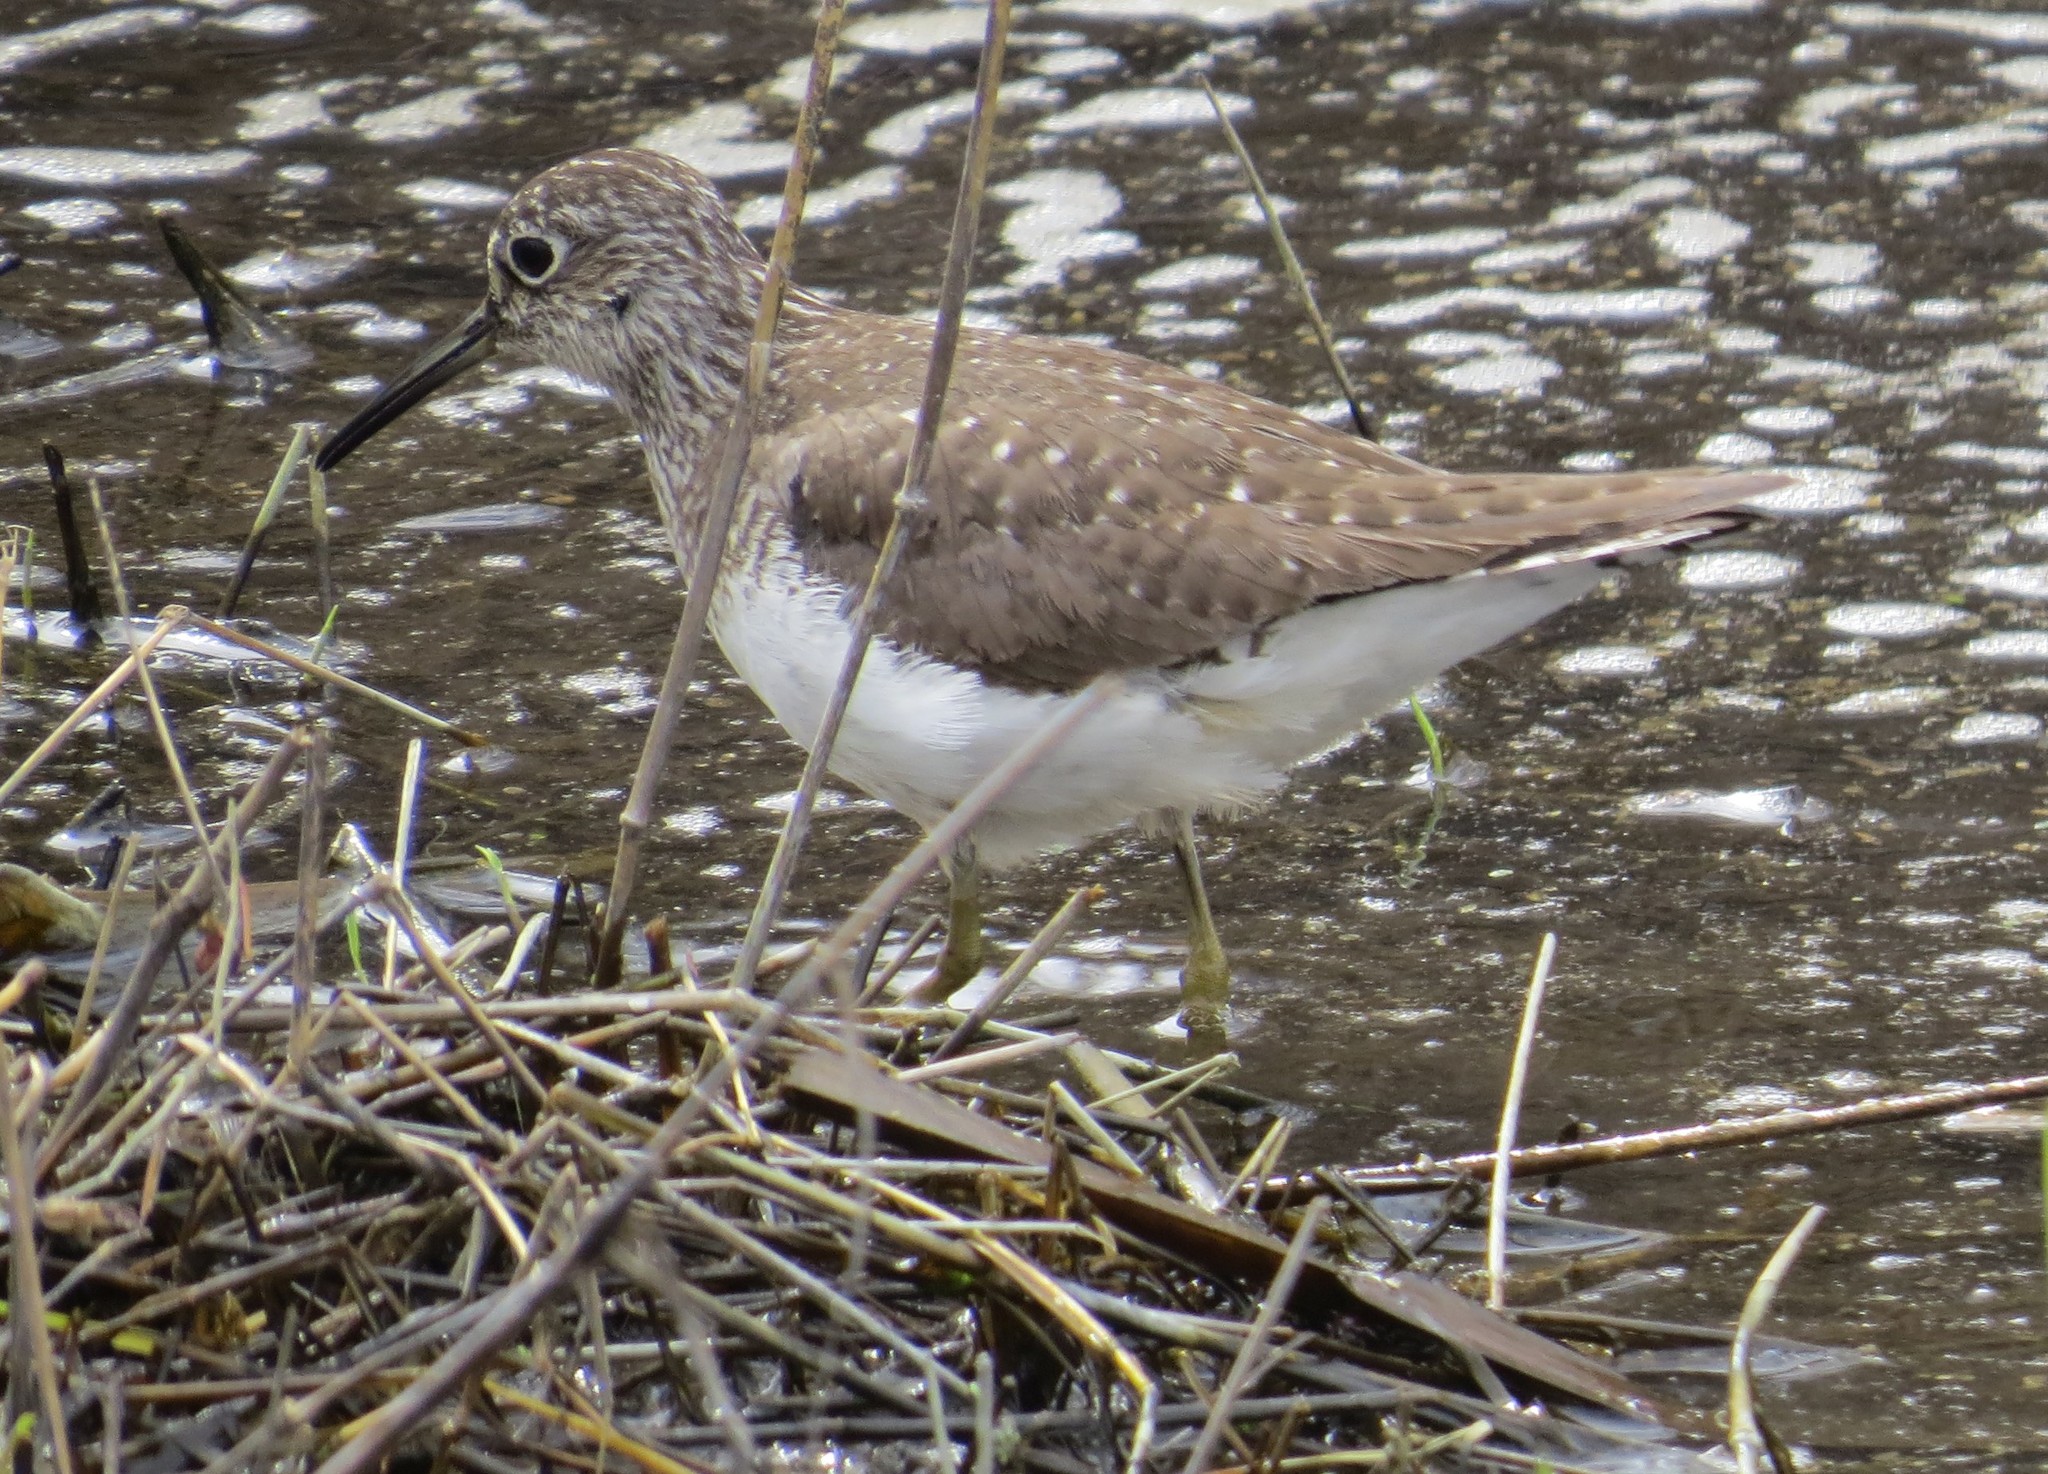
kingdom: Animalia
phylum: Chordata
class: Aves
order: Charadriiformes
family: Scolopacidae
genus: Tringa
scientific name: Tringa solitaria
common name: Solitary sandpiper
